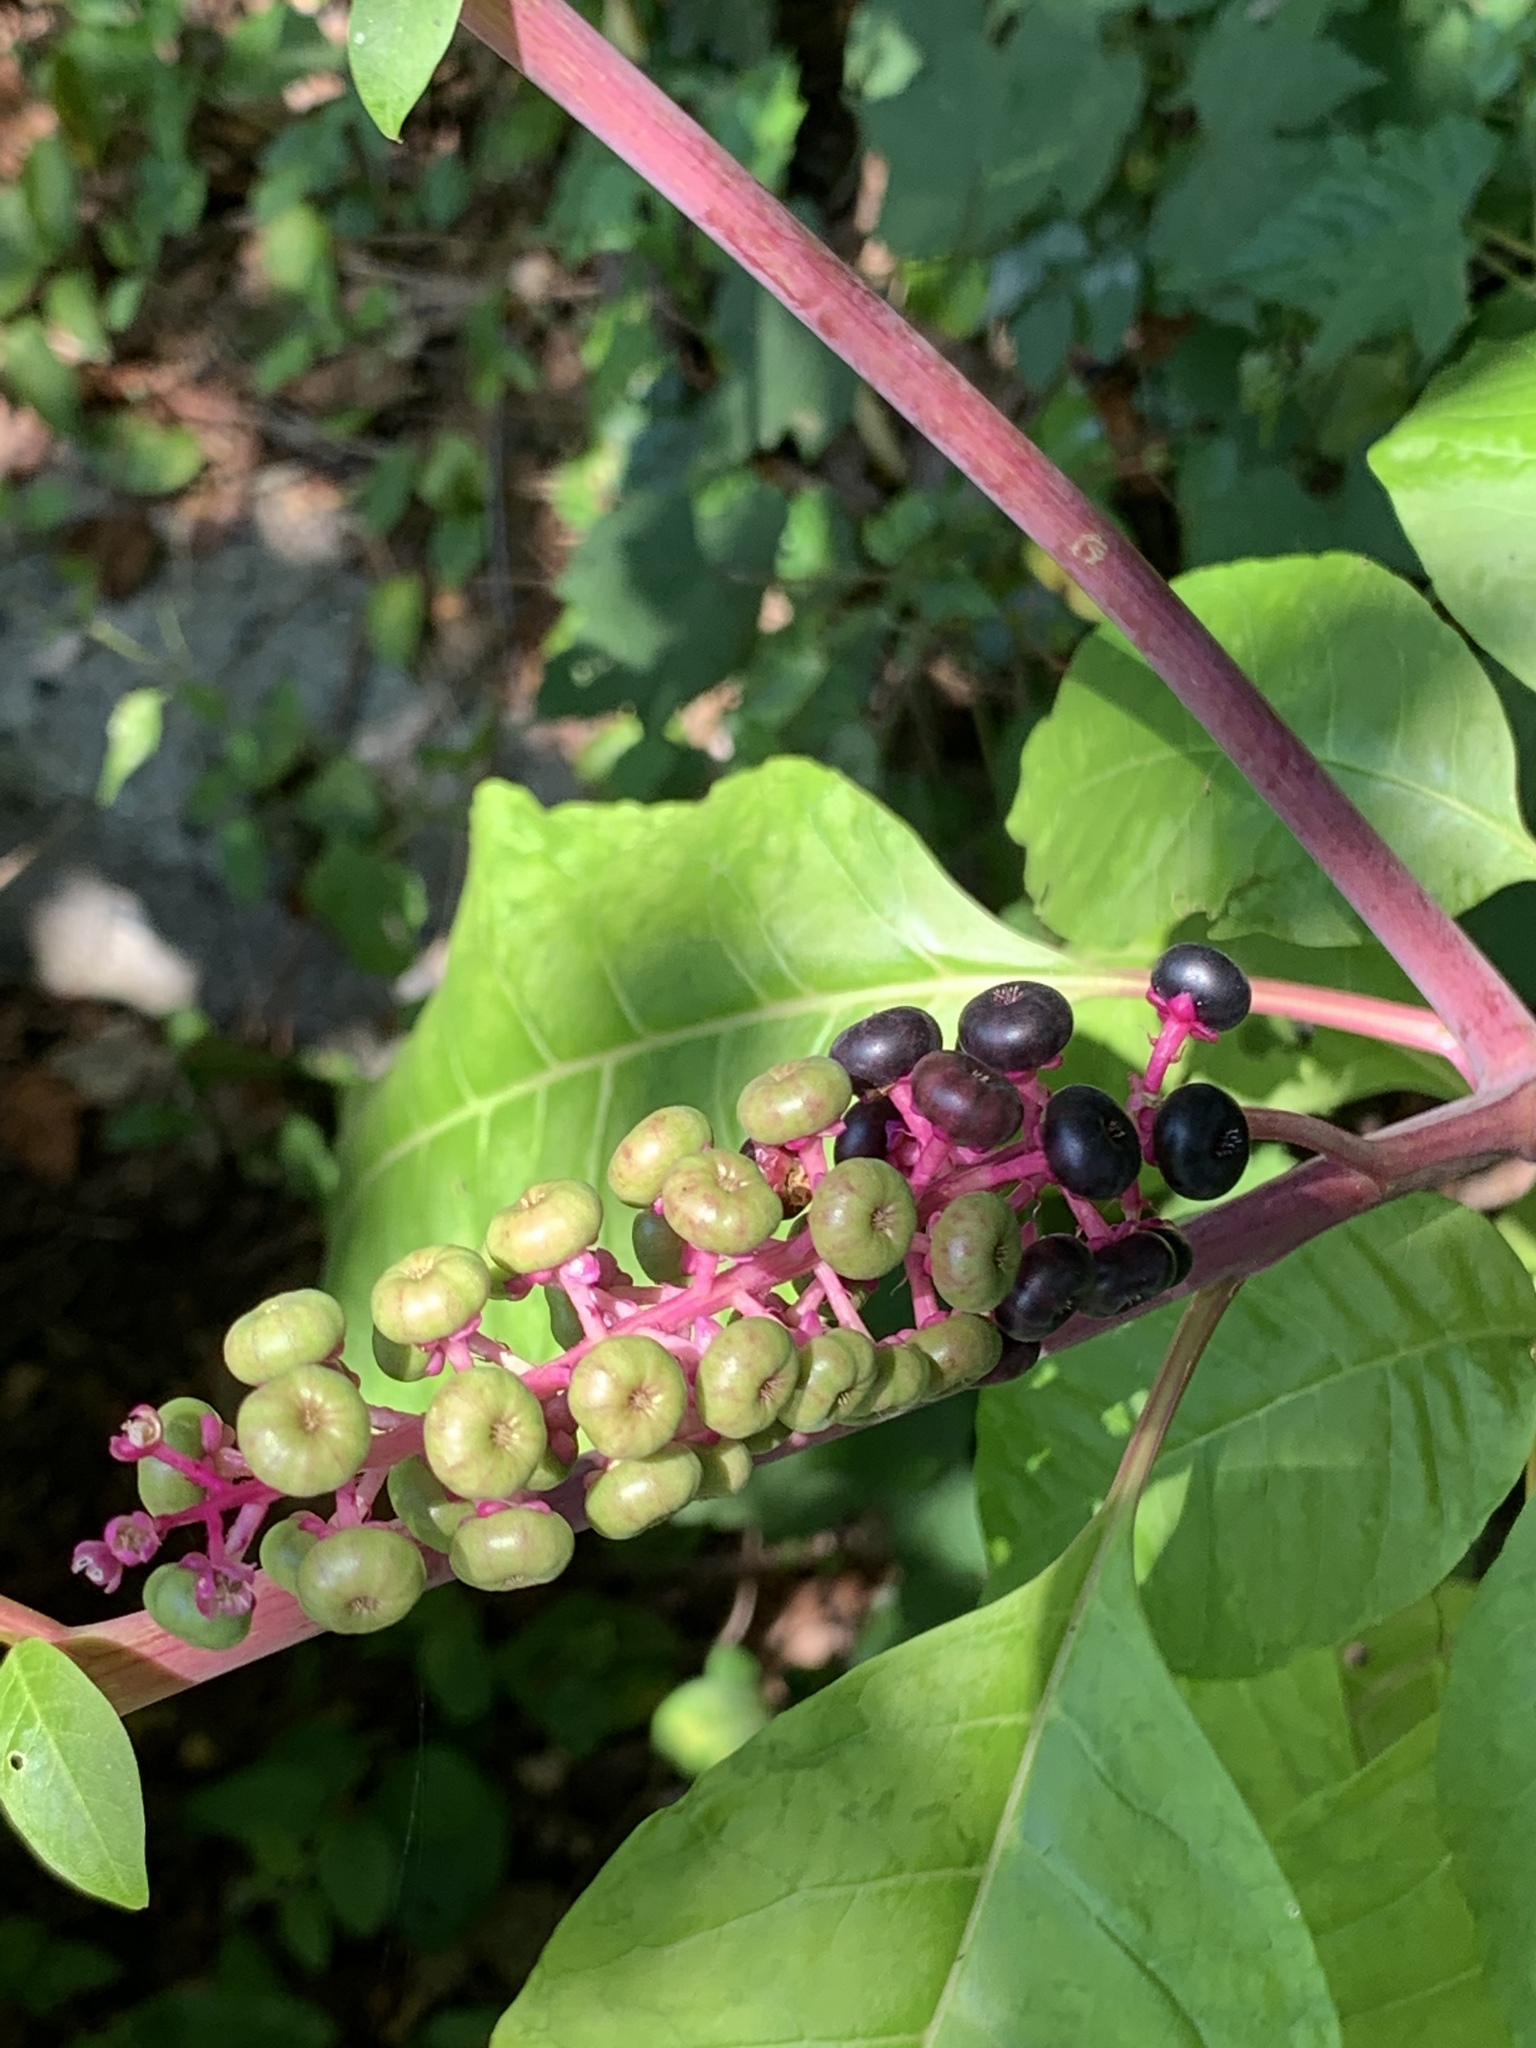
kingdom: Plantae
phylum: Tracheophyta
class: Magnoliopsida
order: Caryophyllales
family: Phytolaccaceae
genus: Phytolacca
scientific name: Phytolacca americana
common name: American pokeweed
